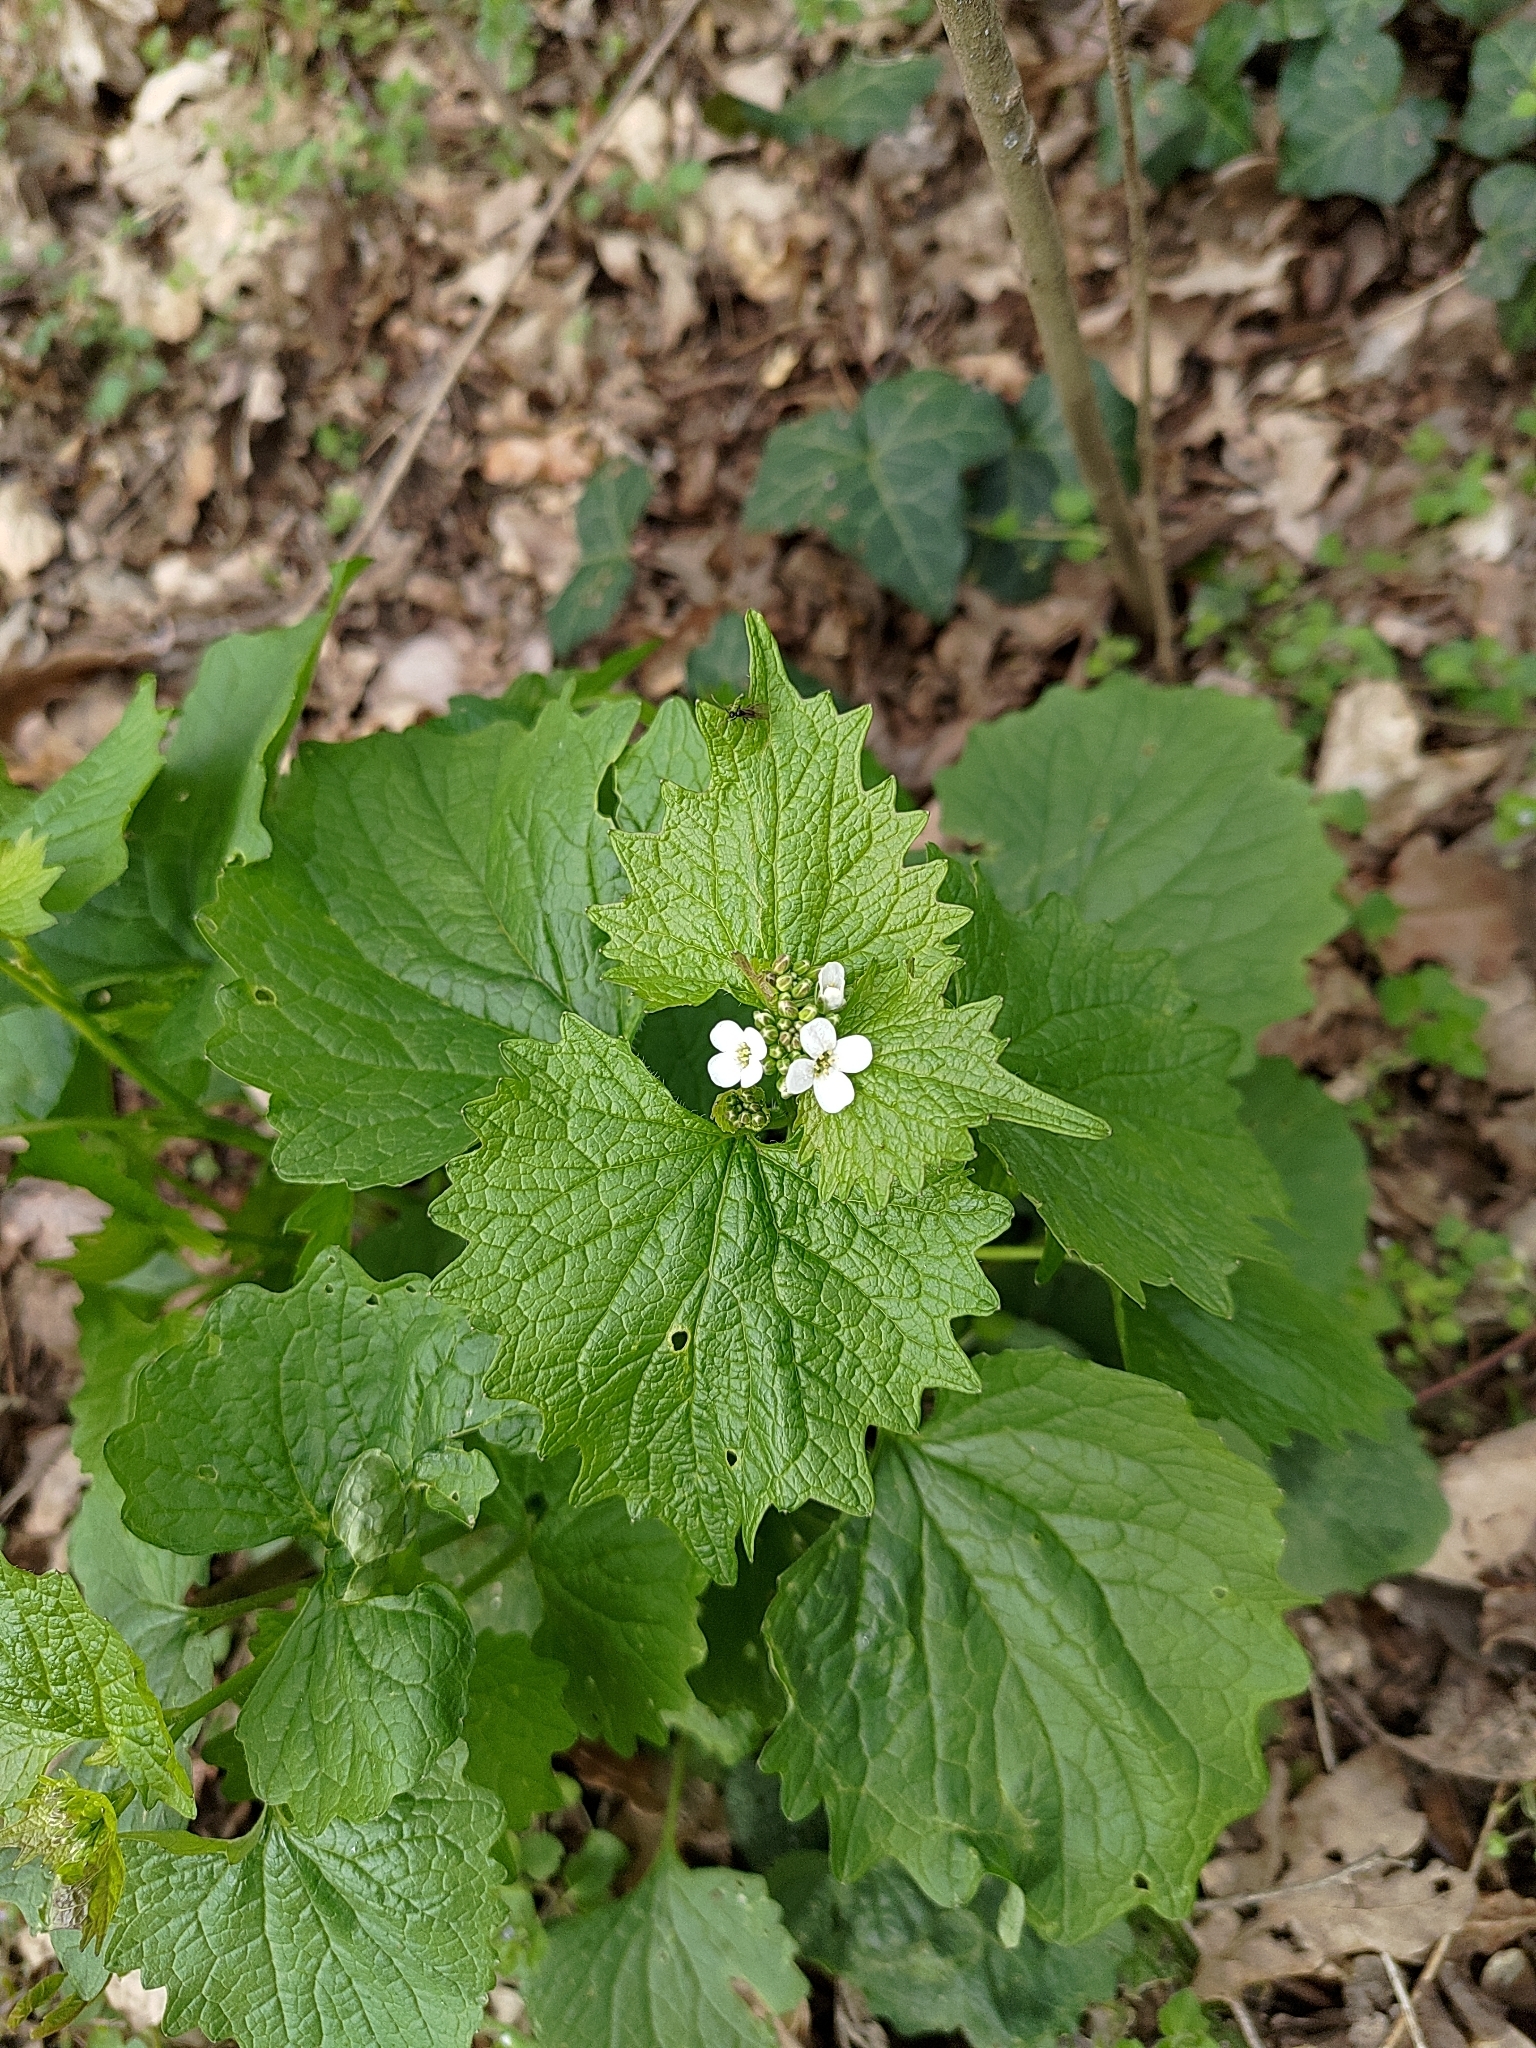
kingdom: Plantae
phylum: Tracheophyta
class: Magnoliopsida
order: Brassicales
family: Brassicaceae
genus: Alliaria
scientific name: Alliaria petiolata
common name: Garlic mustard
